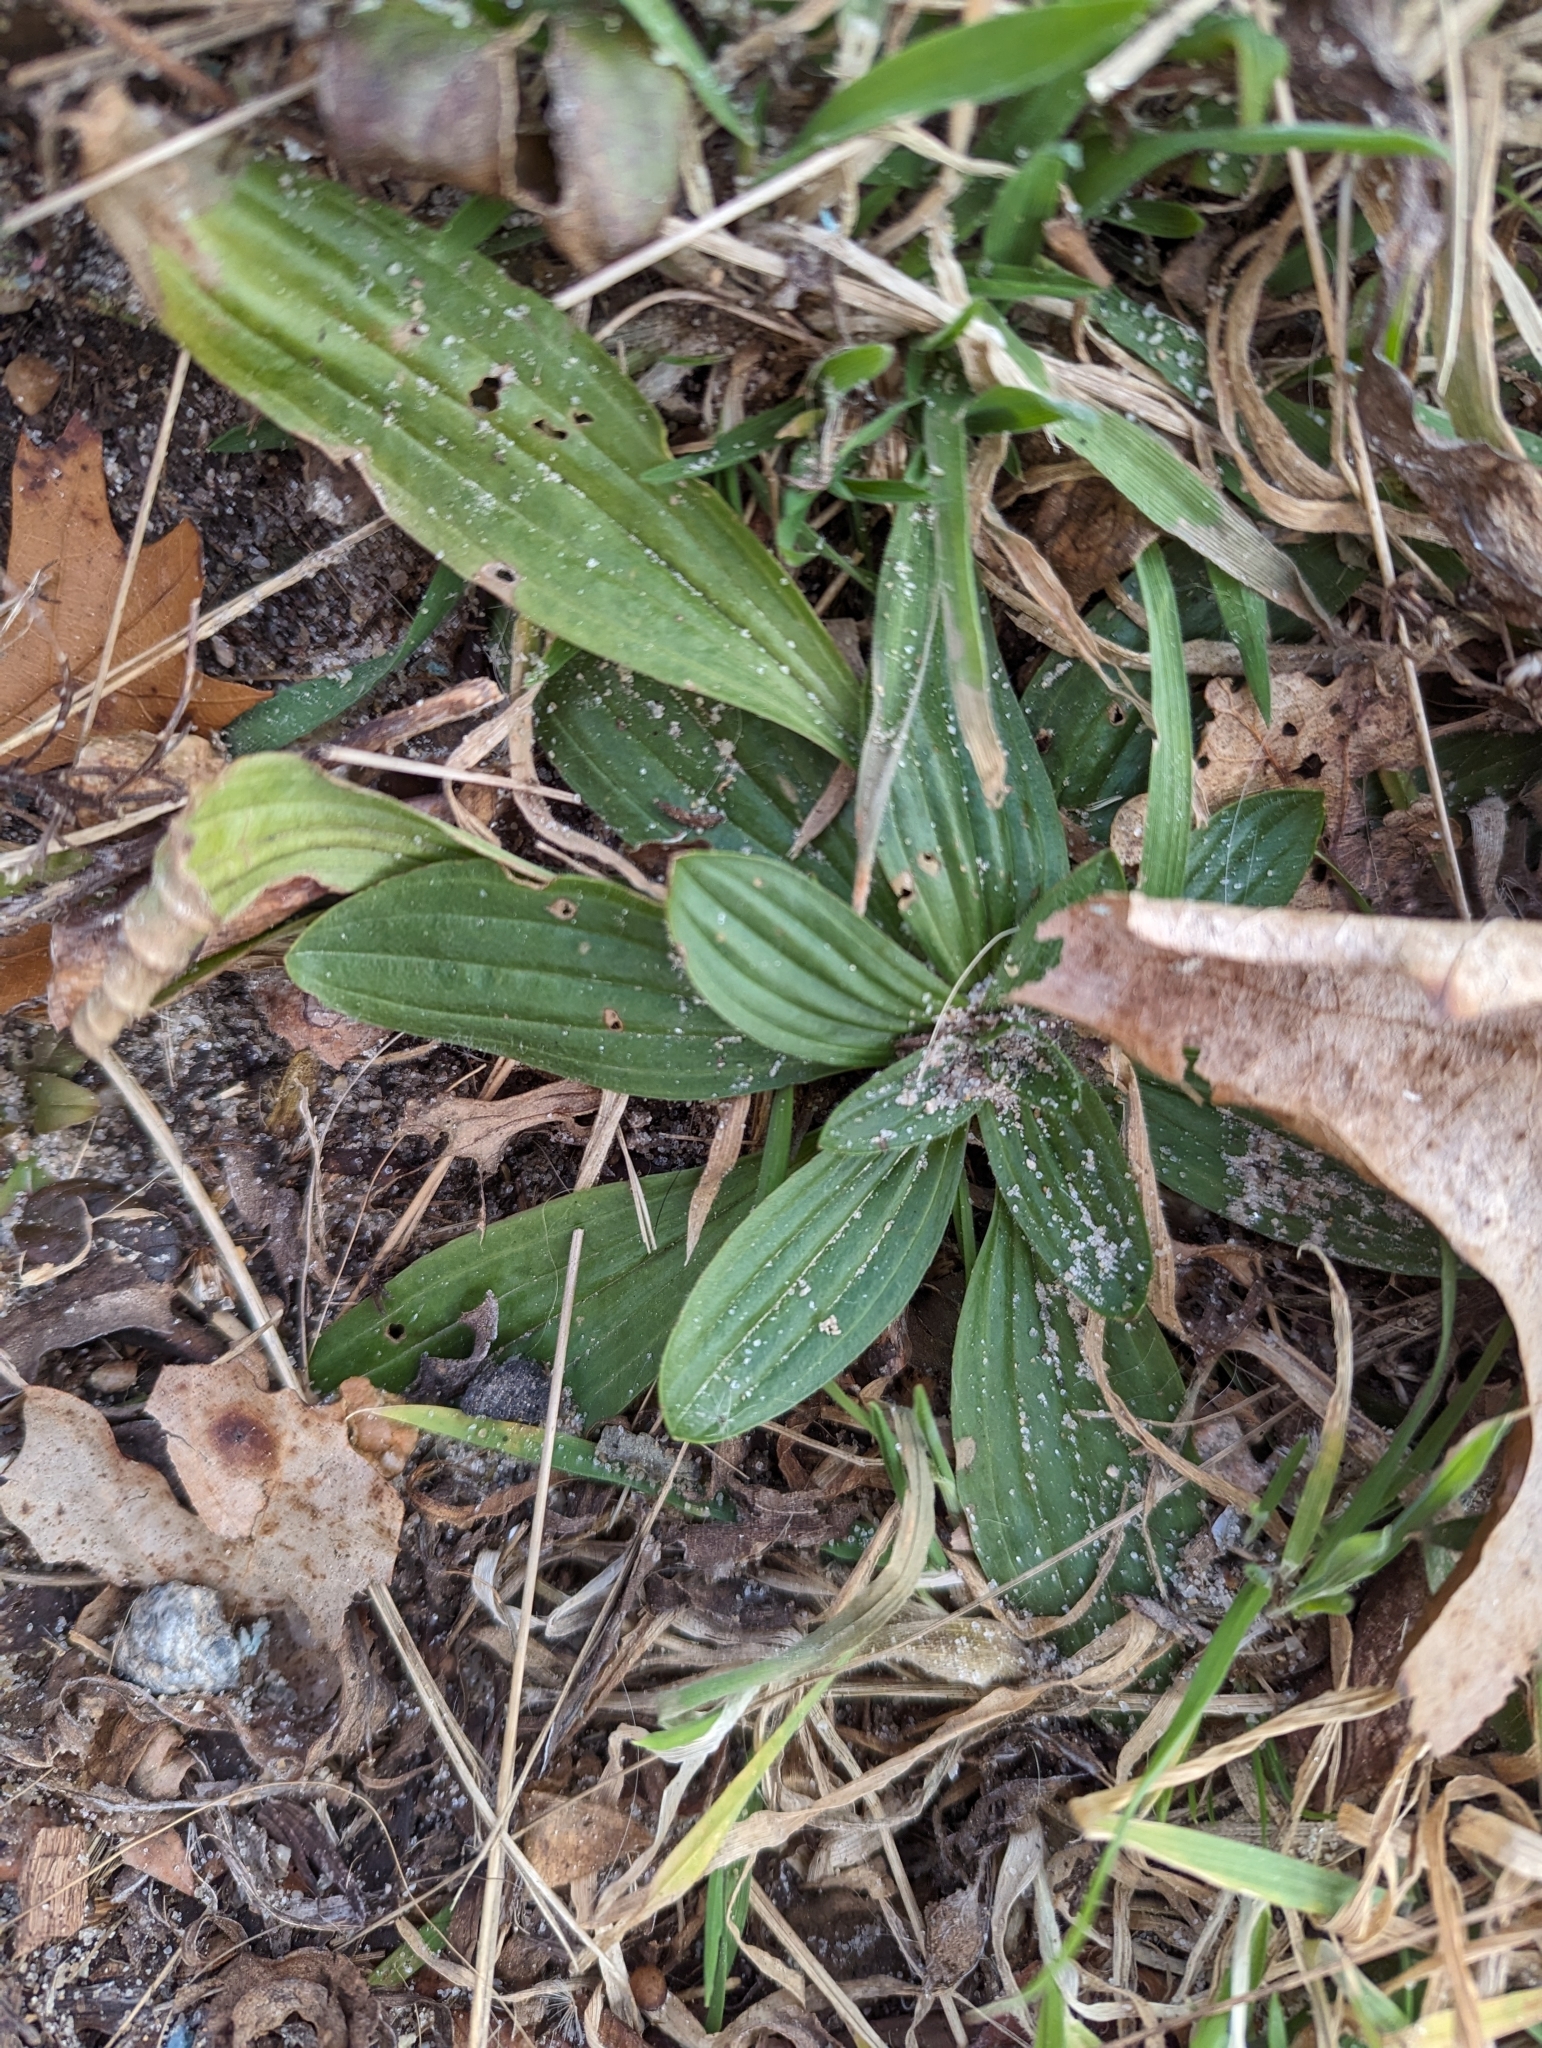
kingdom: Plantae
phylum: Tracheophyta
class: Magnoliopsida
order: Lamiales
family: Plantaginaceae
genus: Plantago
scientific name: Plantago lanceolata
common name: Ribwort plantain
